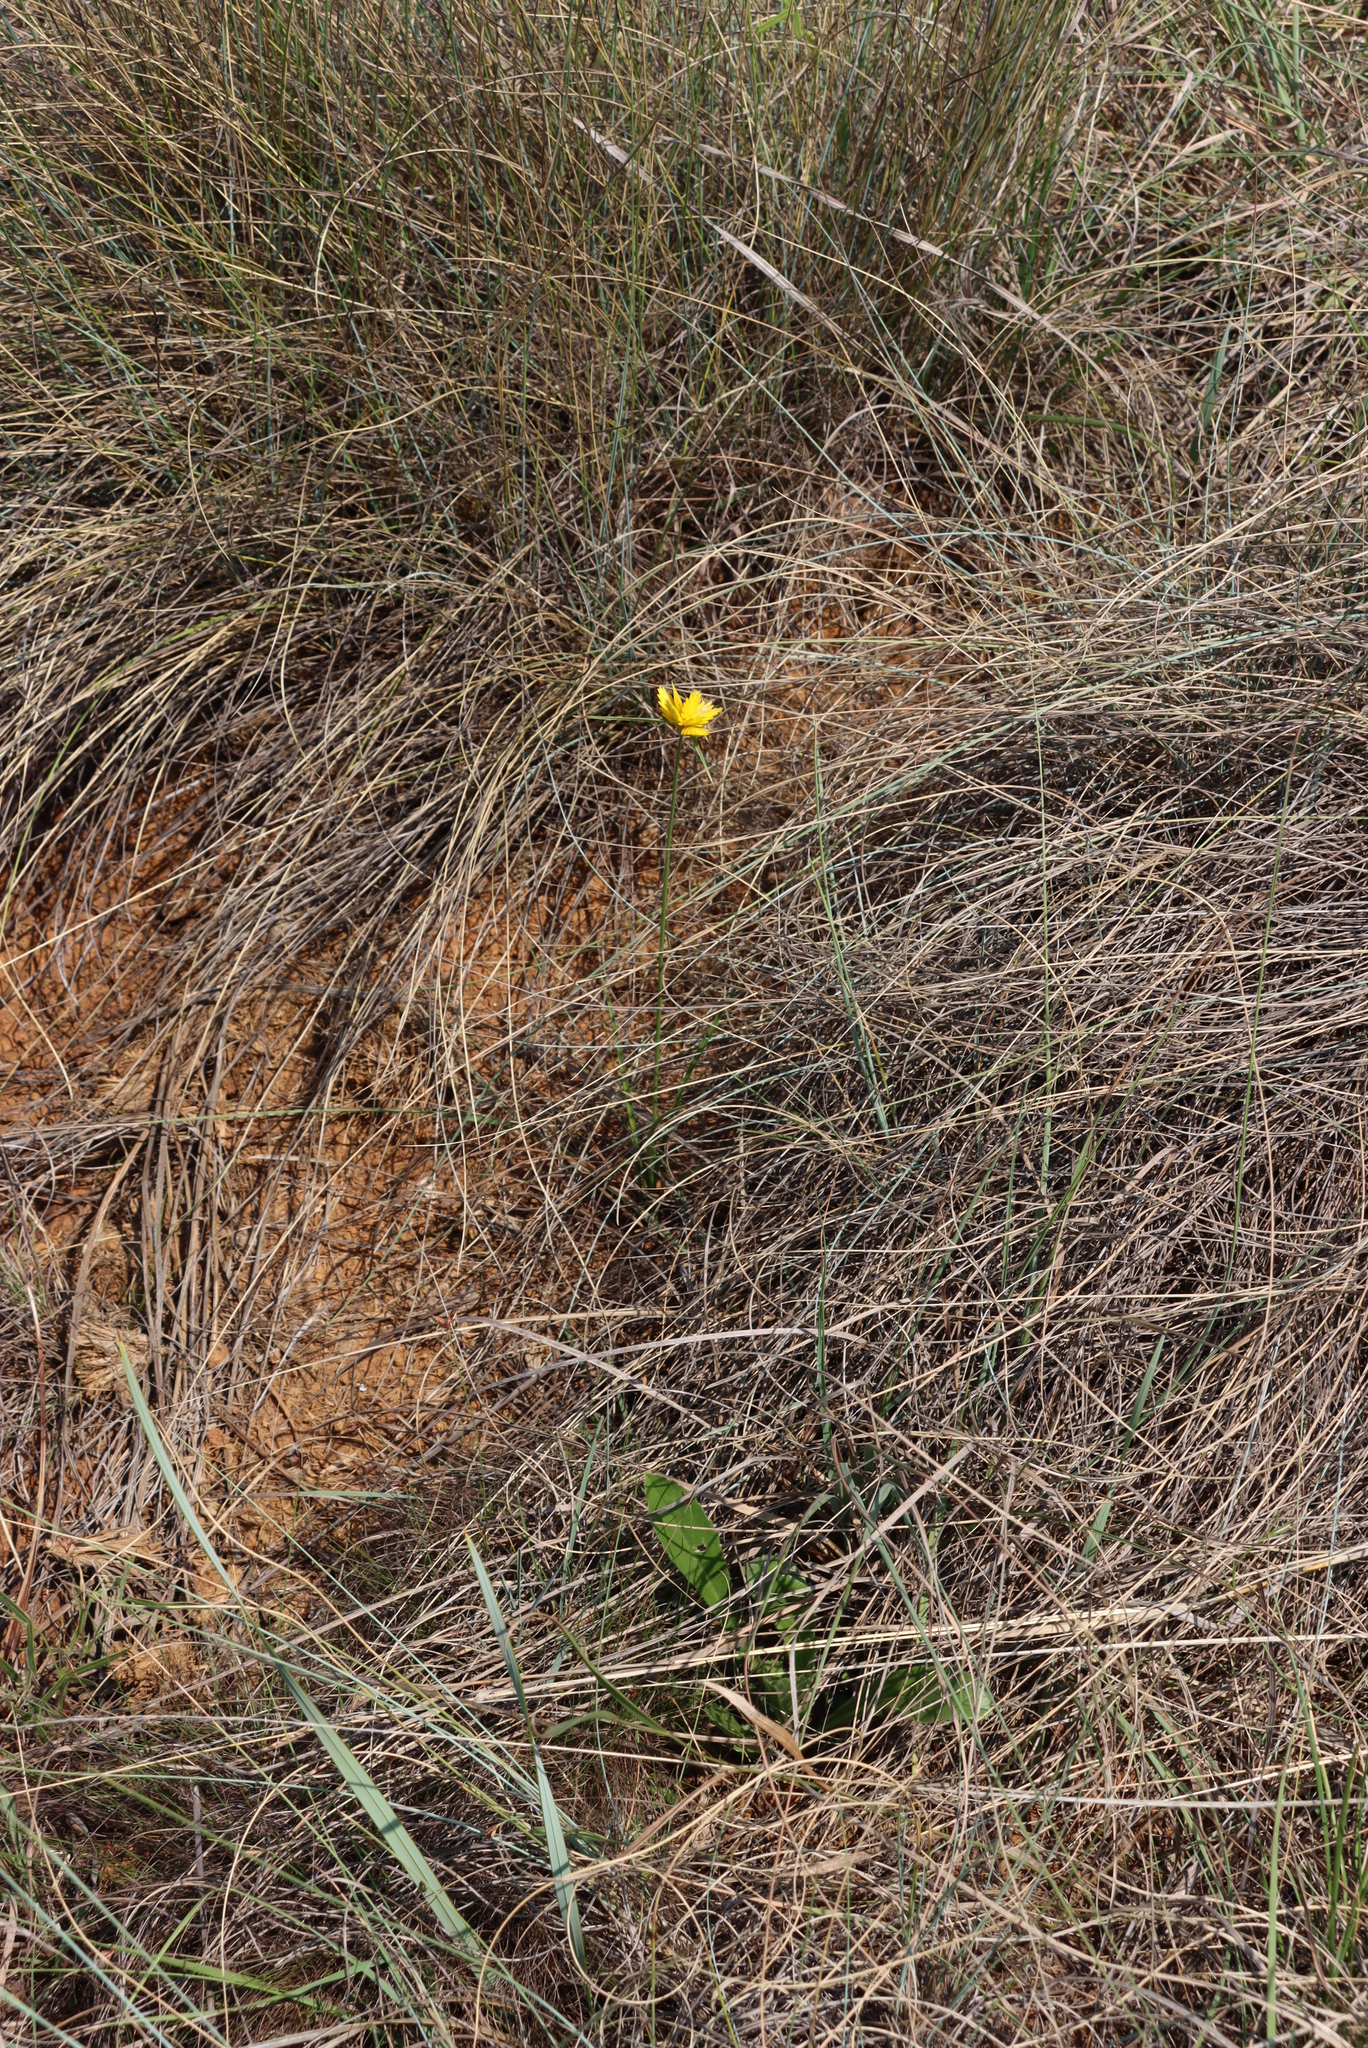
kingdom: Plantae
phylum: Tracheophyta
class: Liliopsida
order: Poales
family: Cyperaceae
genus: Cyperus
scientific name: Cyperus sphaerocephalus
